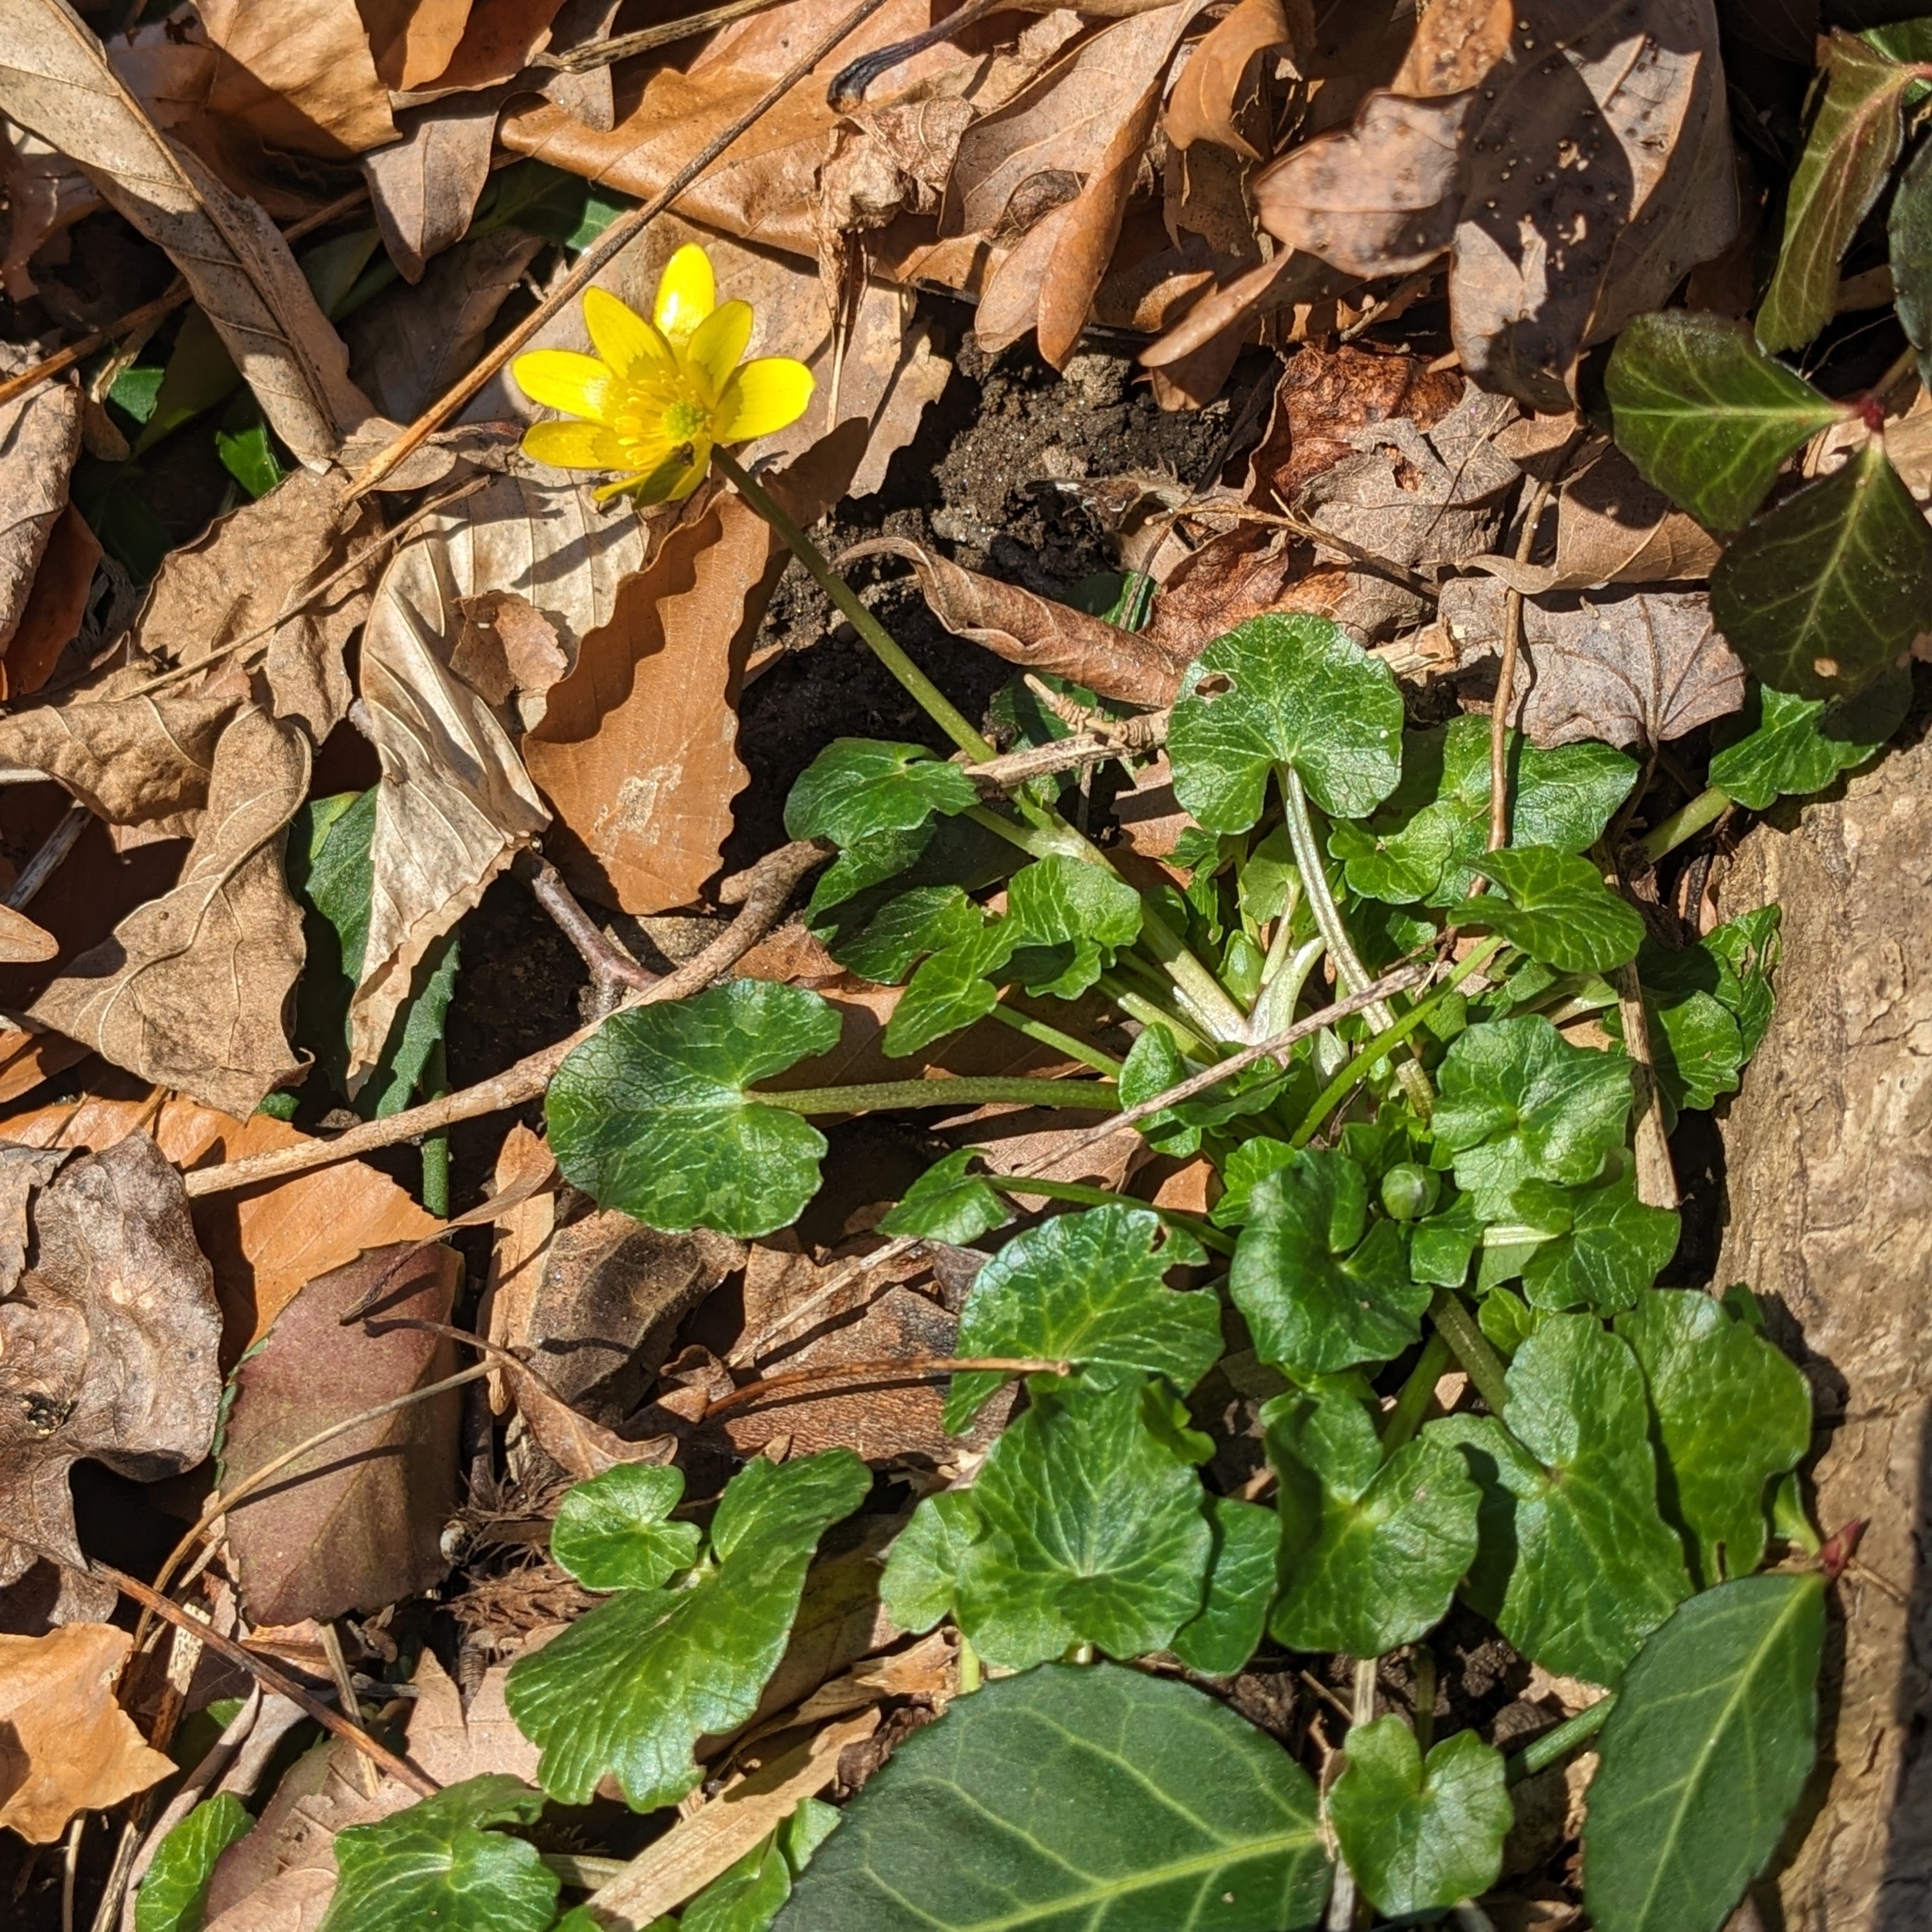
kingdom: Plantae
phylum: Tracheophyta
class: Magnoliopsida
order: Ranunculales
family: Ranunculaceae
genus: Ficaria
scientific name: Ficaria verna
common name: Lesser celandine
